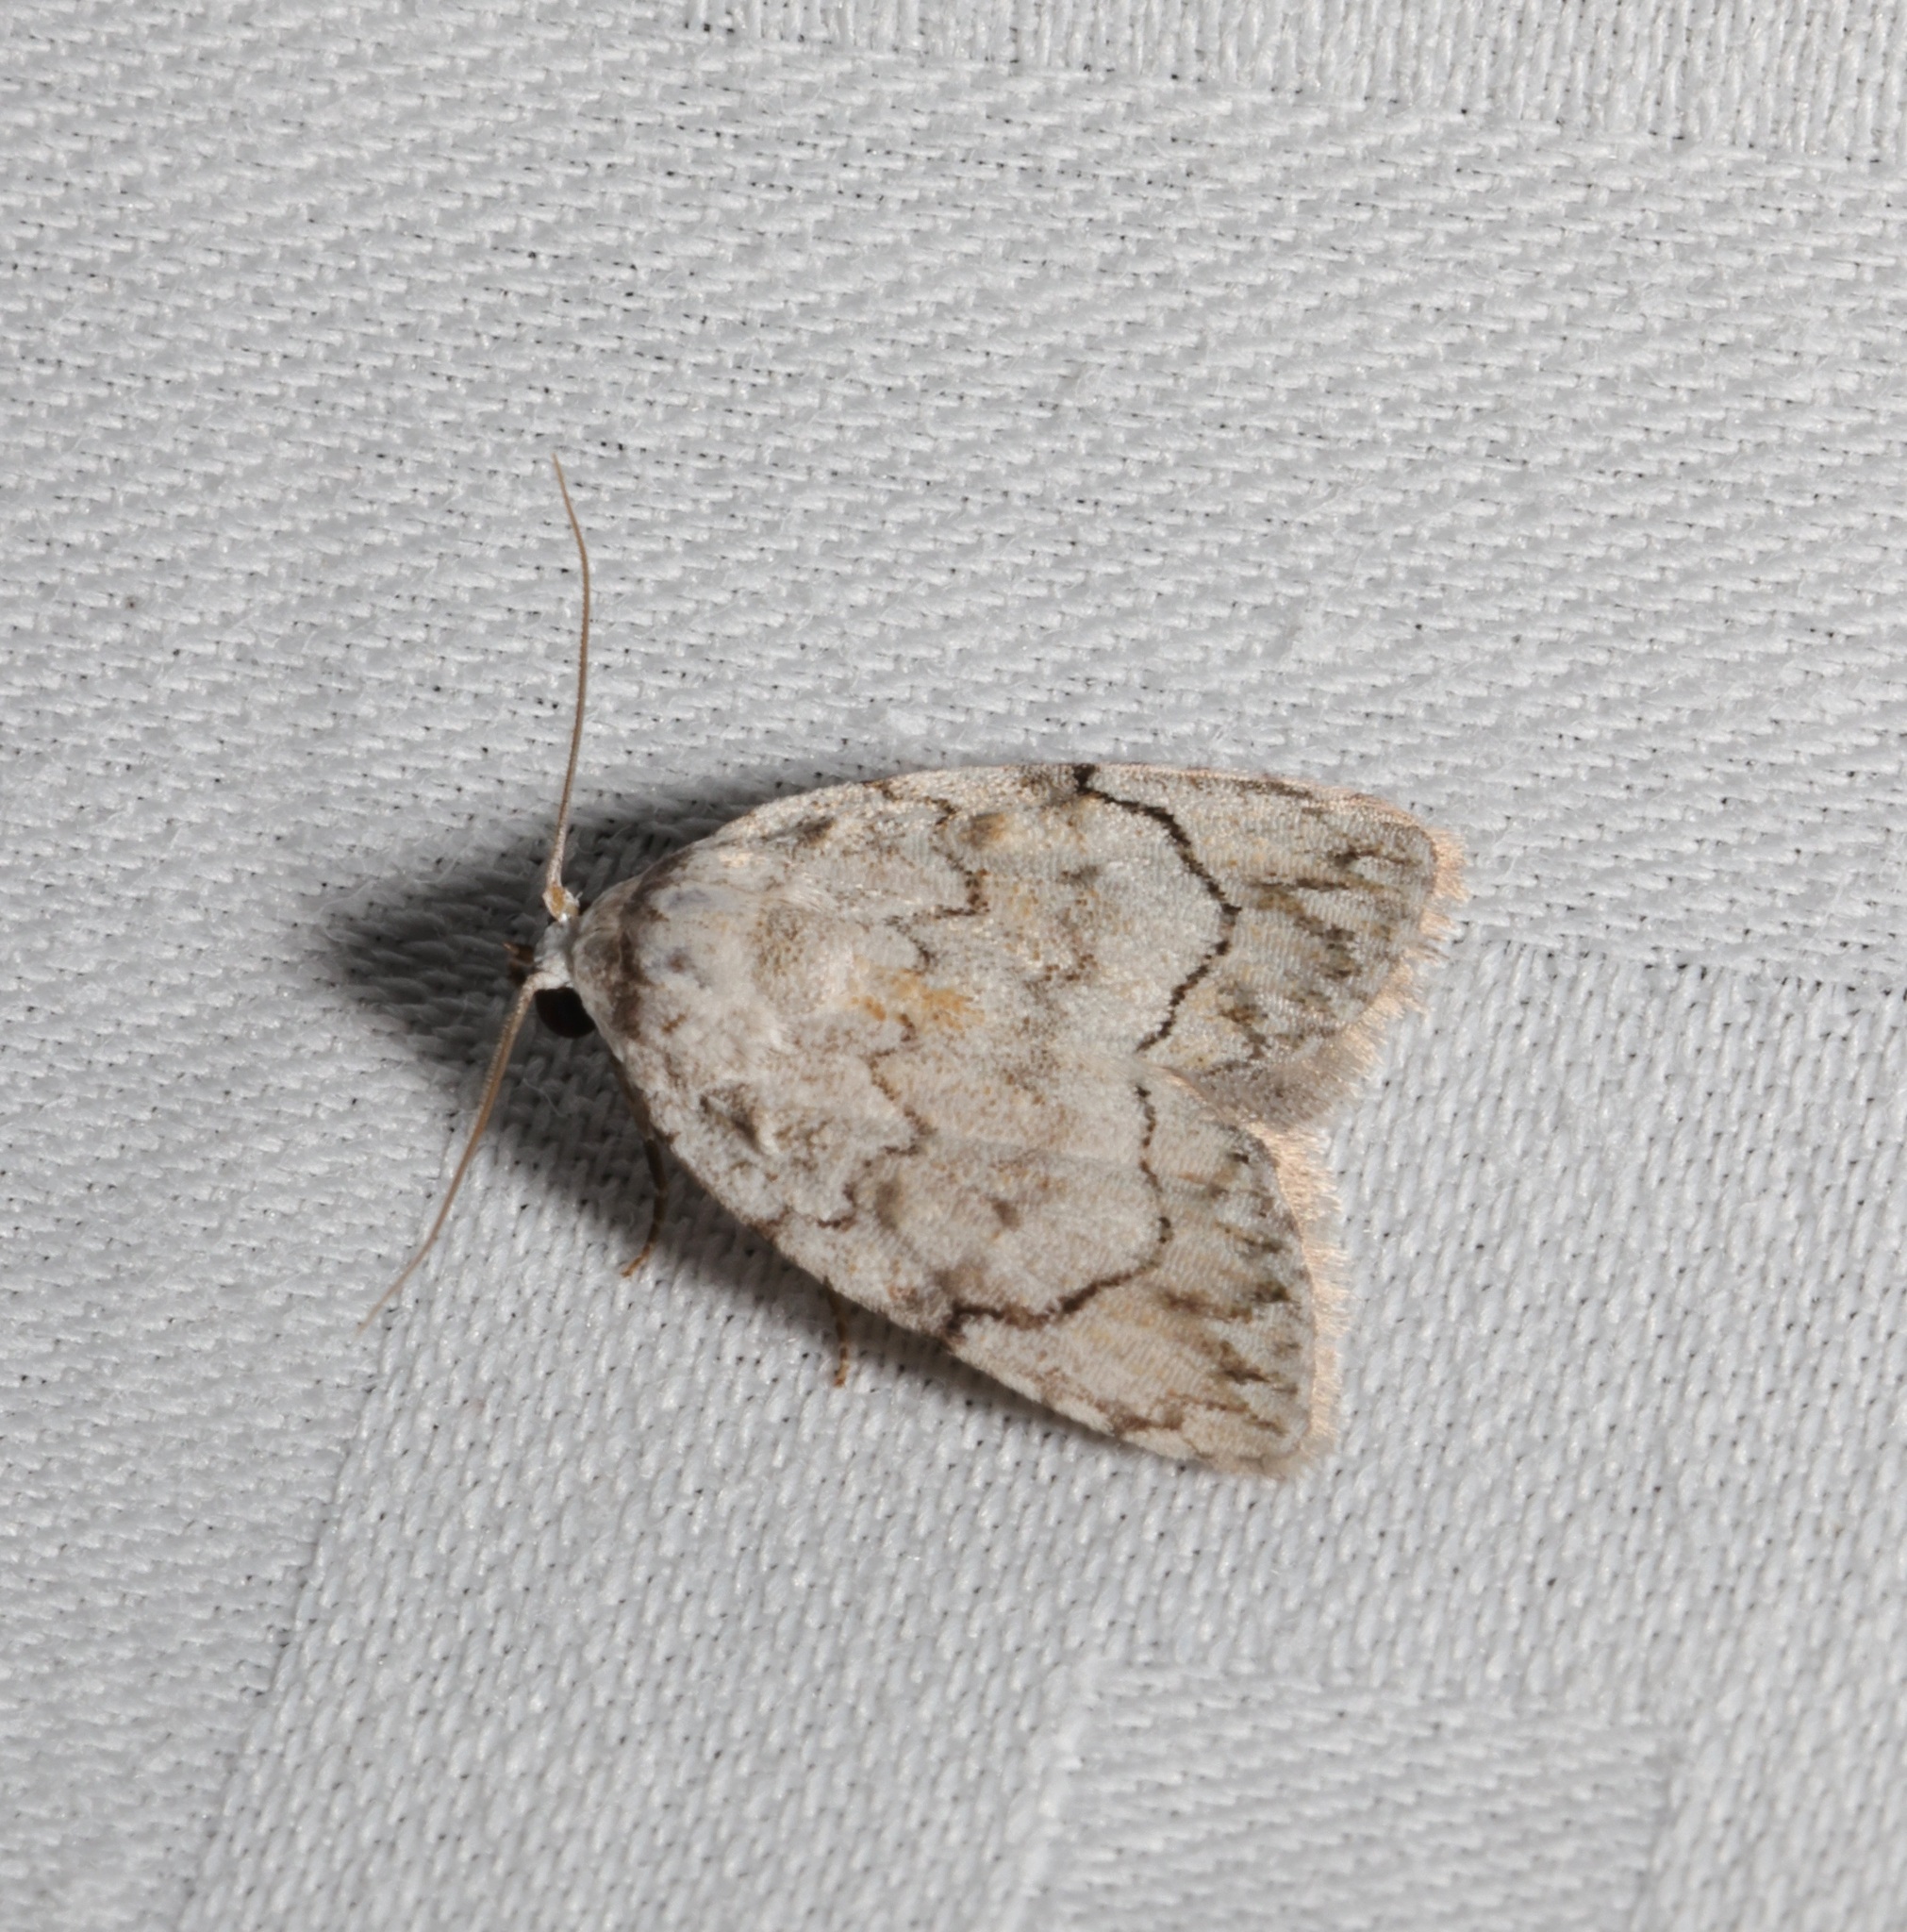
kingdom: Animalia
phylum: Arthropoda
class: Insecta
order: Lepidoptera
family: Nolidae
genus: Melanographia
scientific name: Melanographia flexilineata
